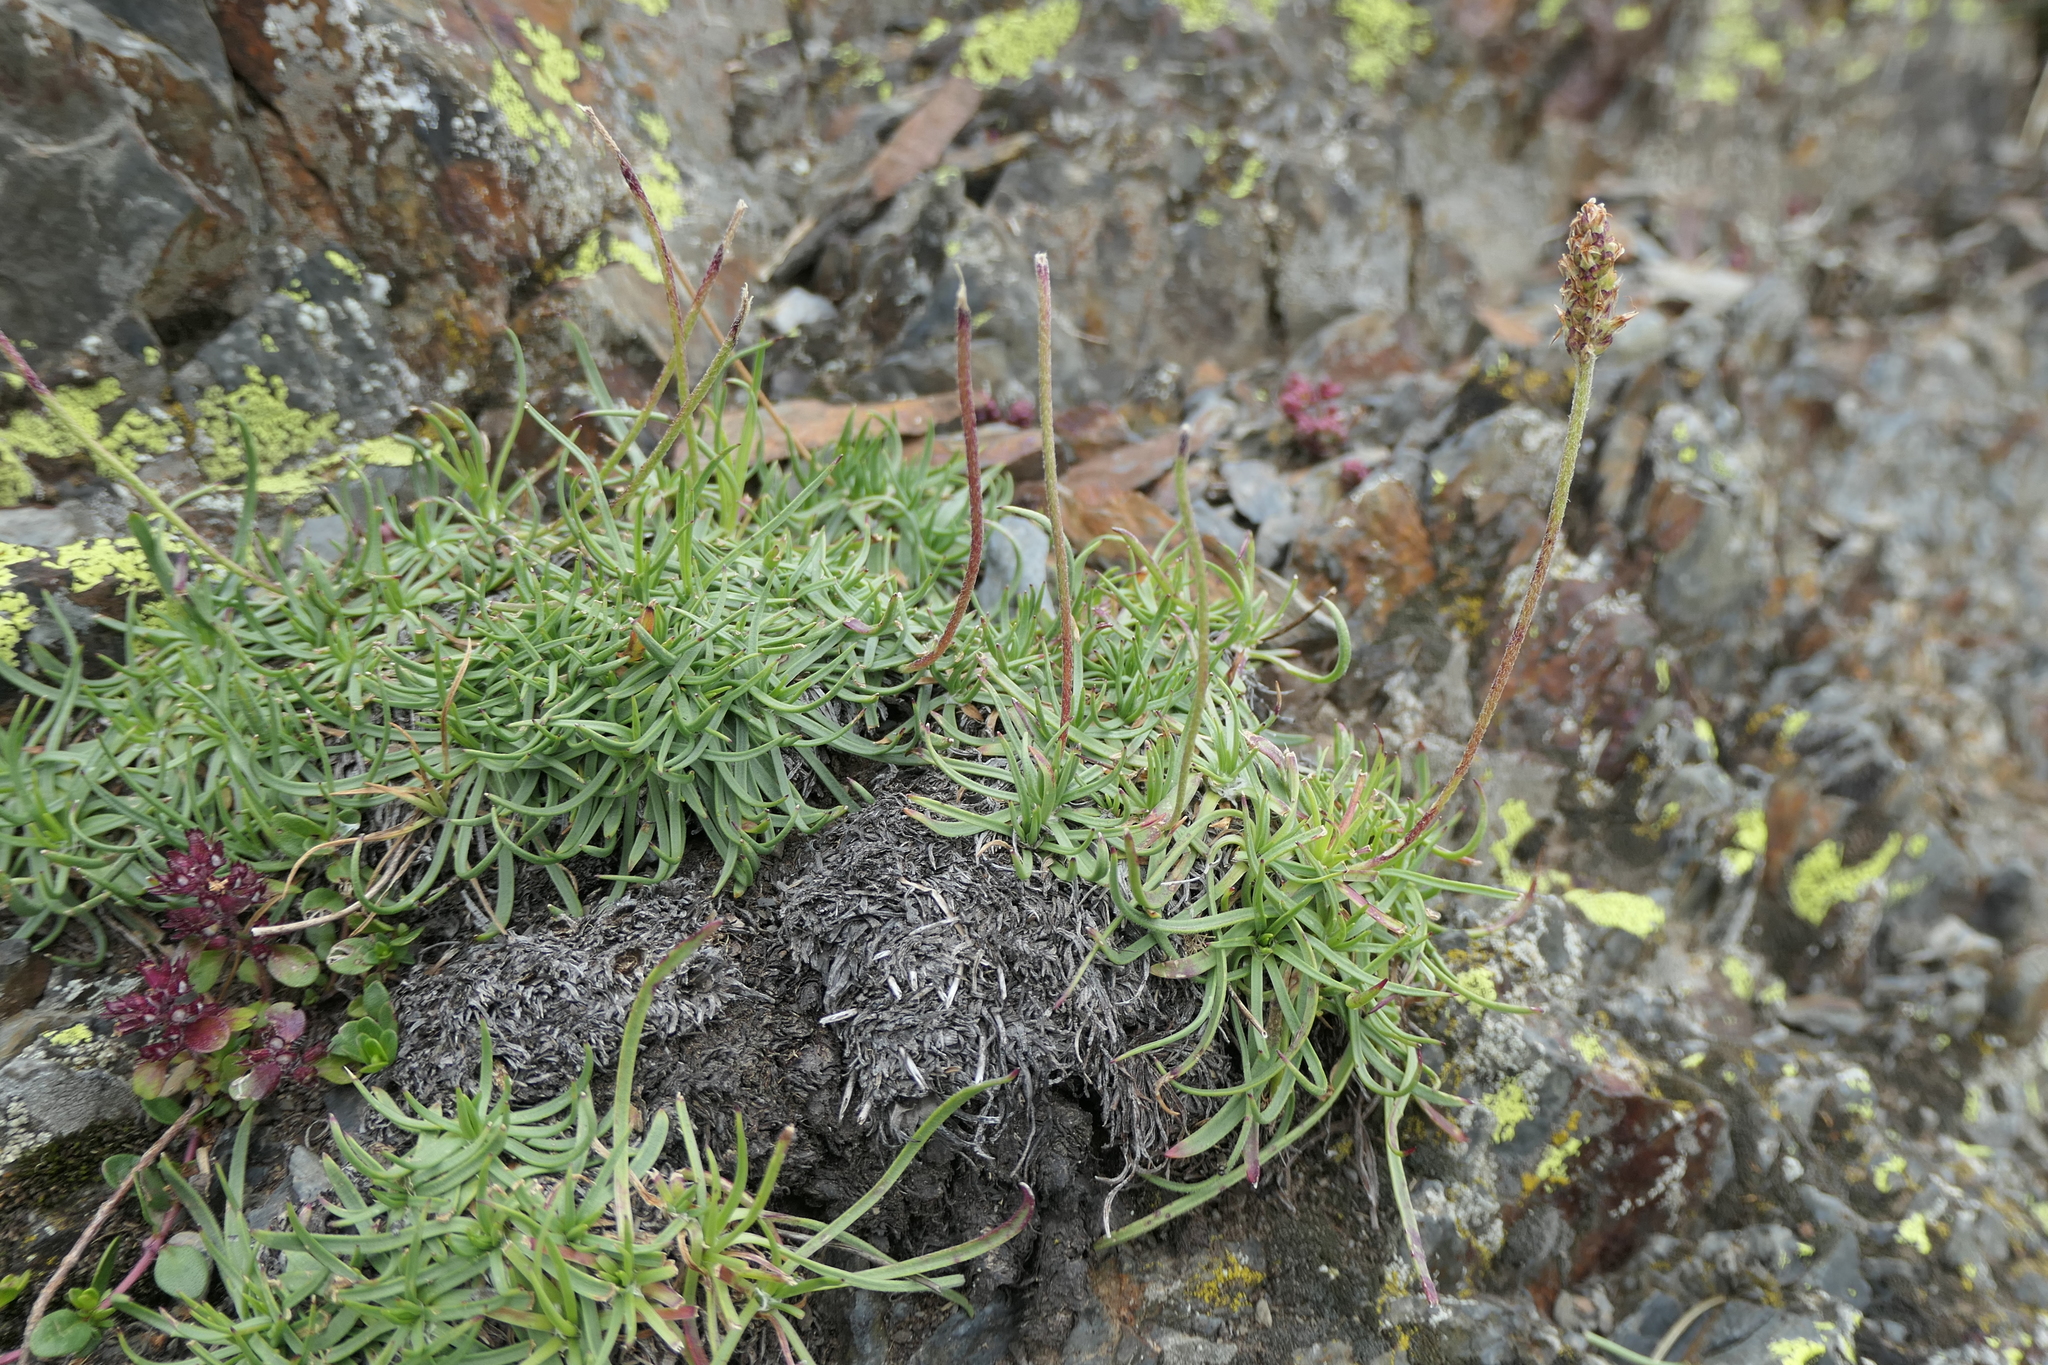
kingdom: Plantae
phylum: Tracheophyta
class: Magnoliopsida
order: Lamiales
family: Plantaginaceae
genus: Plantago
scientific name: Plantago alpina
